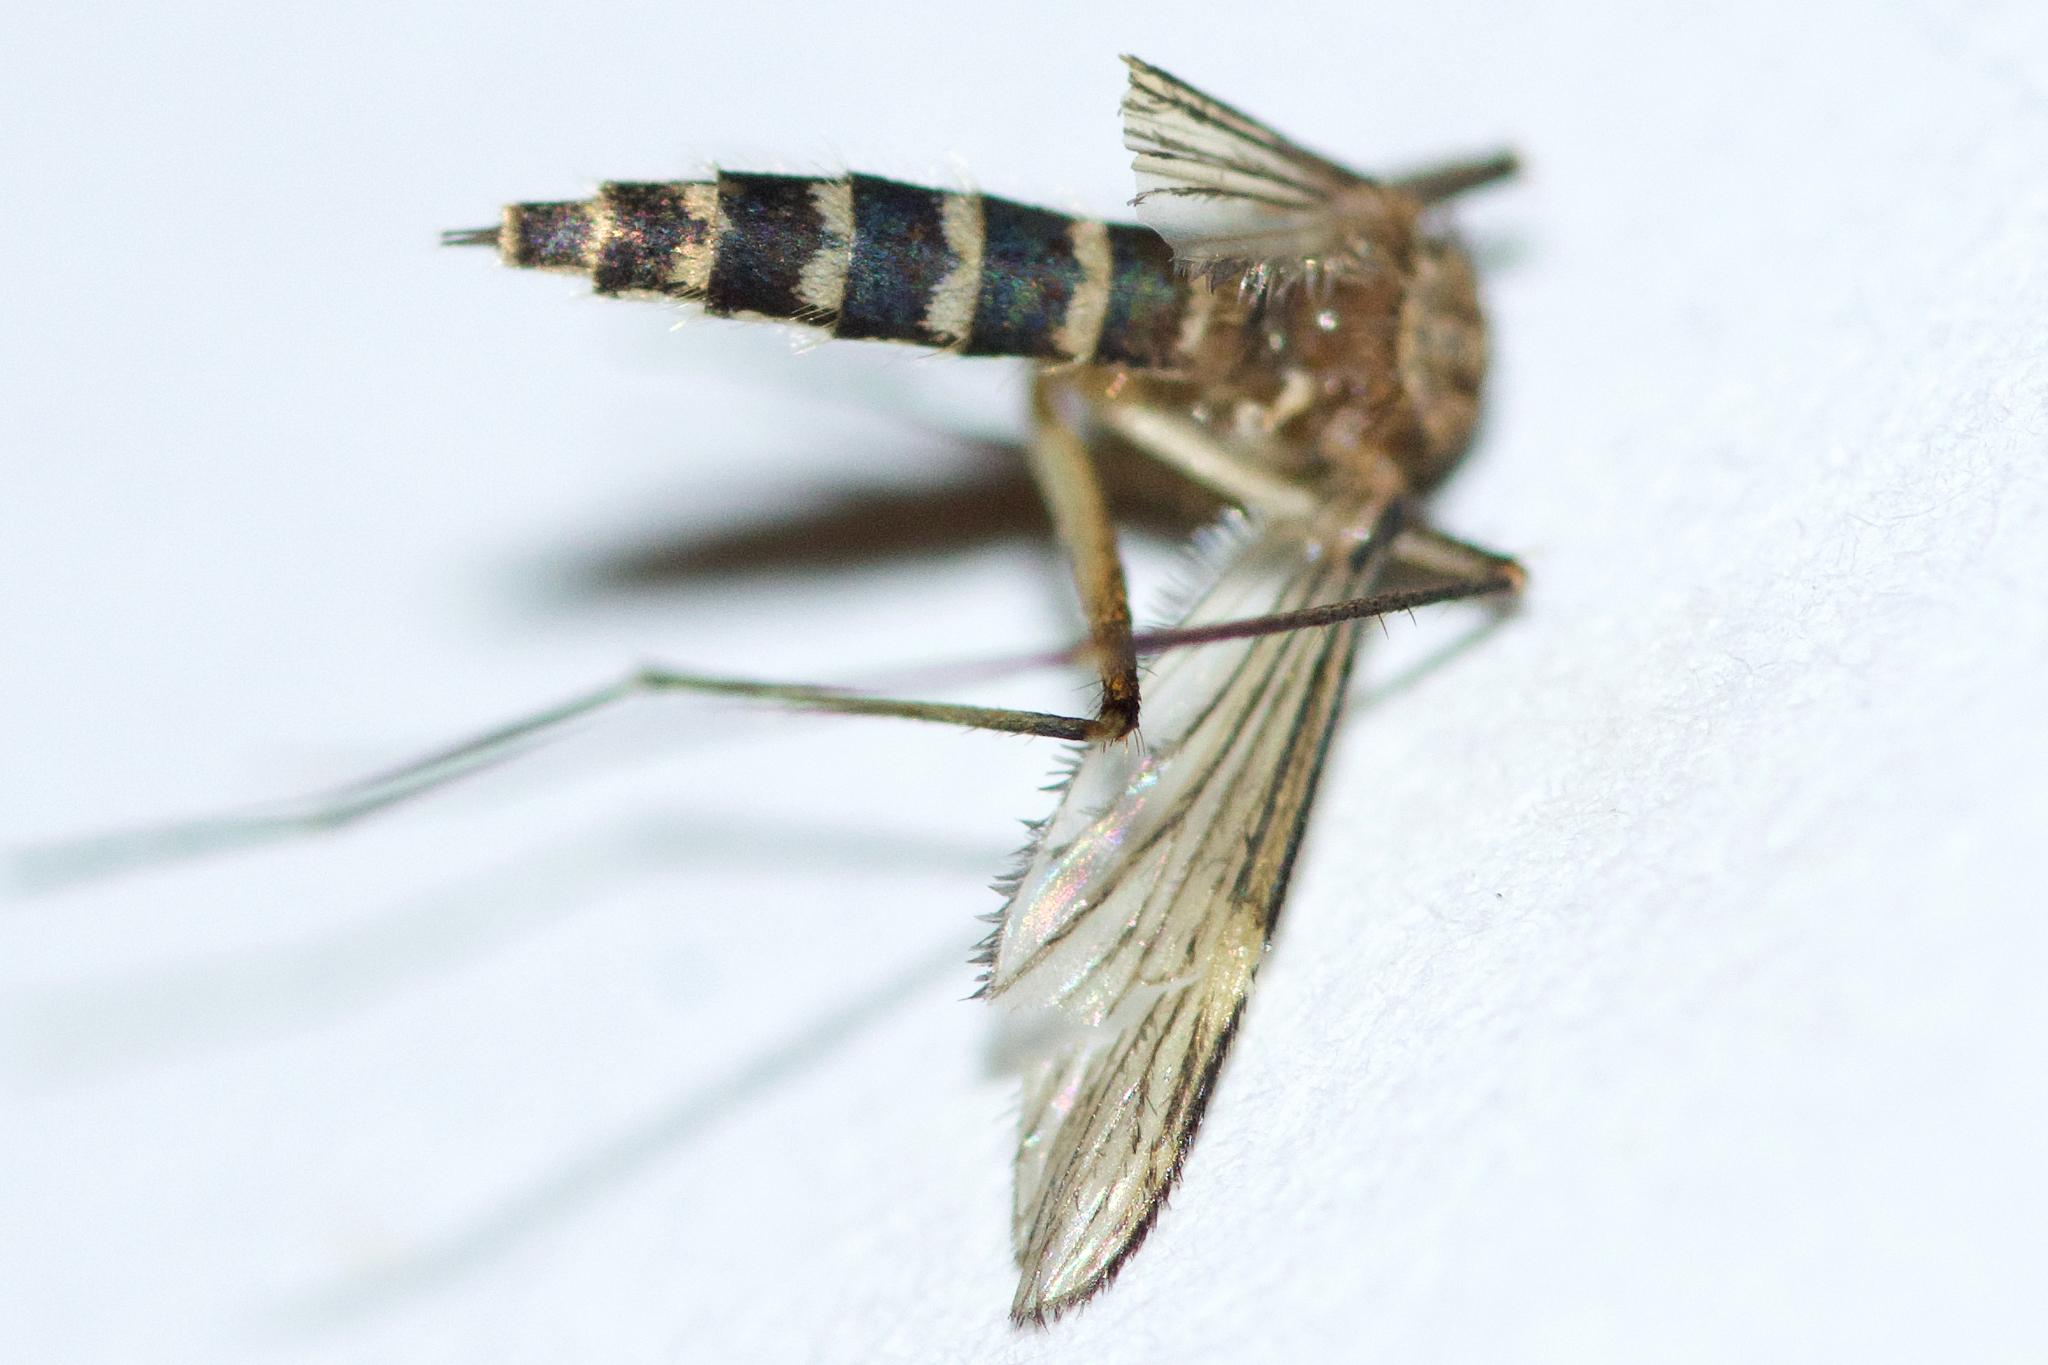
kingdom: Animalia
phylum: Arthropoda
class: Insecta
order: Diptera
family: Culicidae
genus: Aedes
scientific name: Aedes vexans
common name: Inland floodwater mosquito
